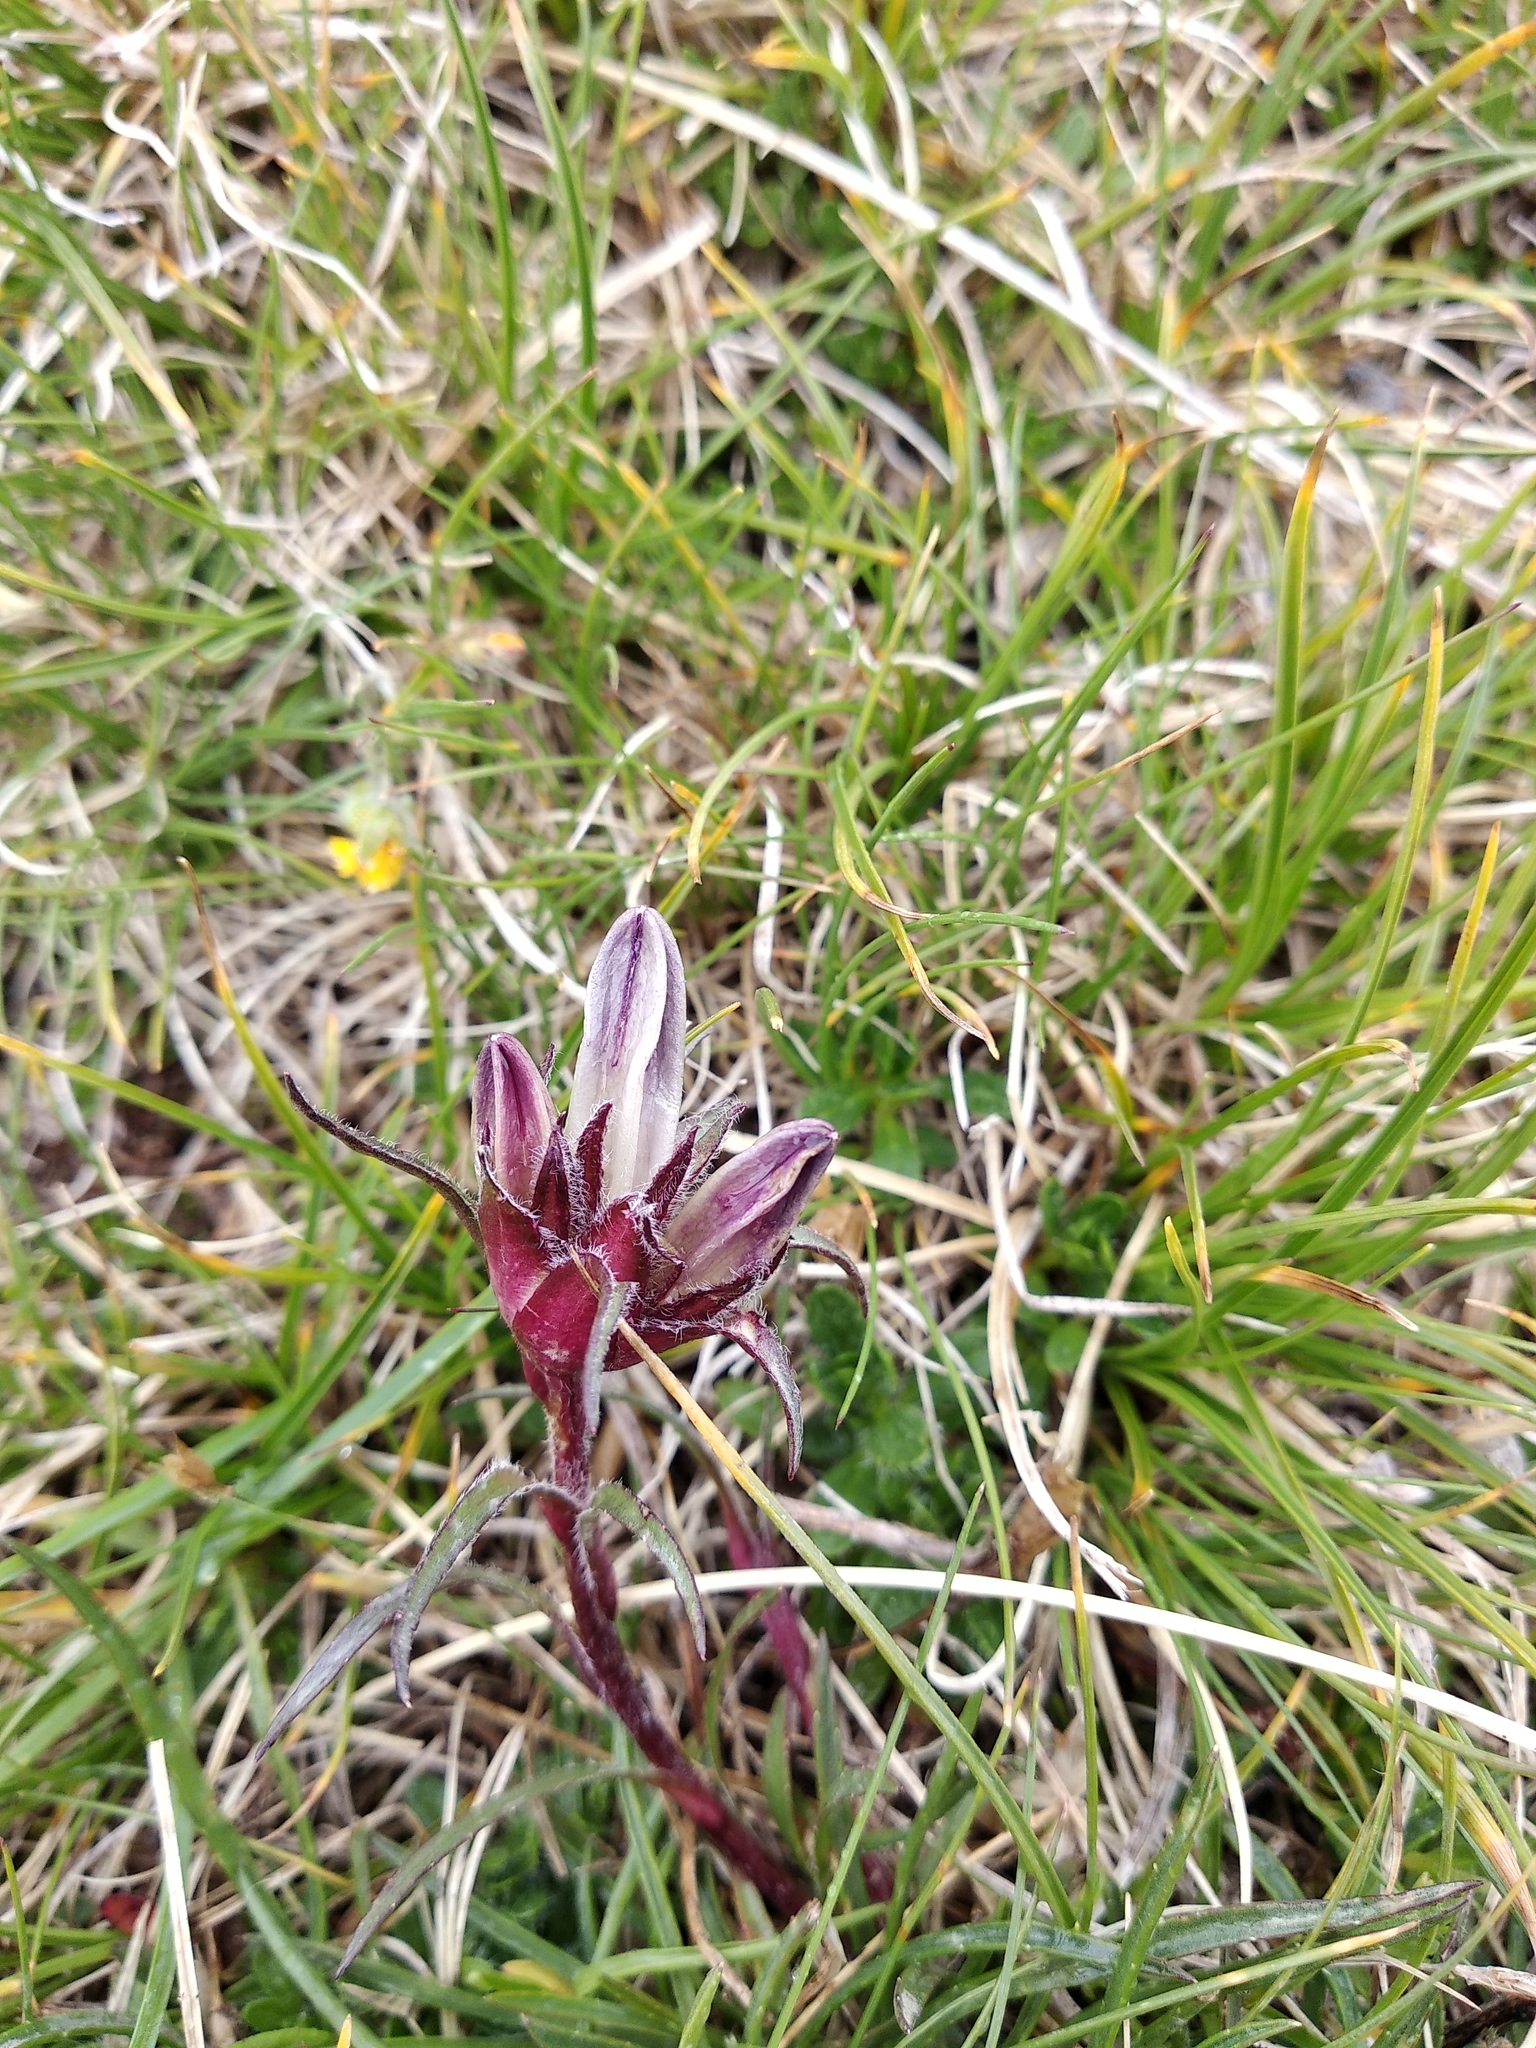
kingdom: Plantae
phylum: Tracheophyta
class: Magnoliopsida
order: Asterales
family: Campanulaceae
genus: Edraianthus
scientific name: Edraianthus graminifolius
